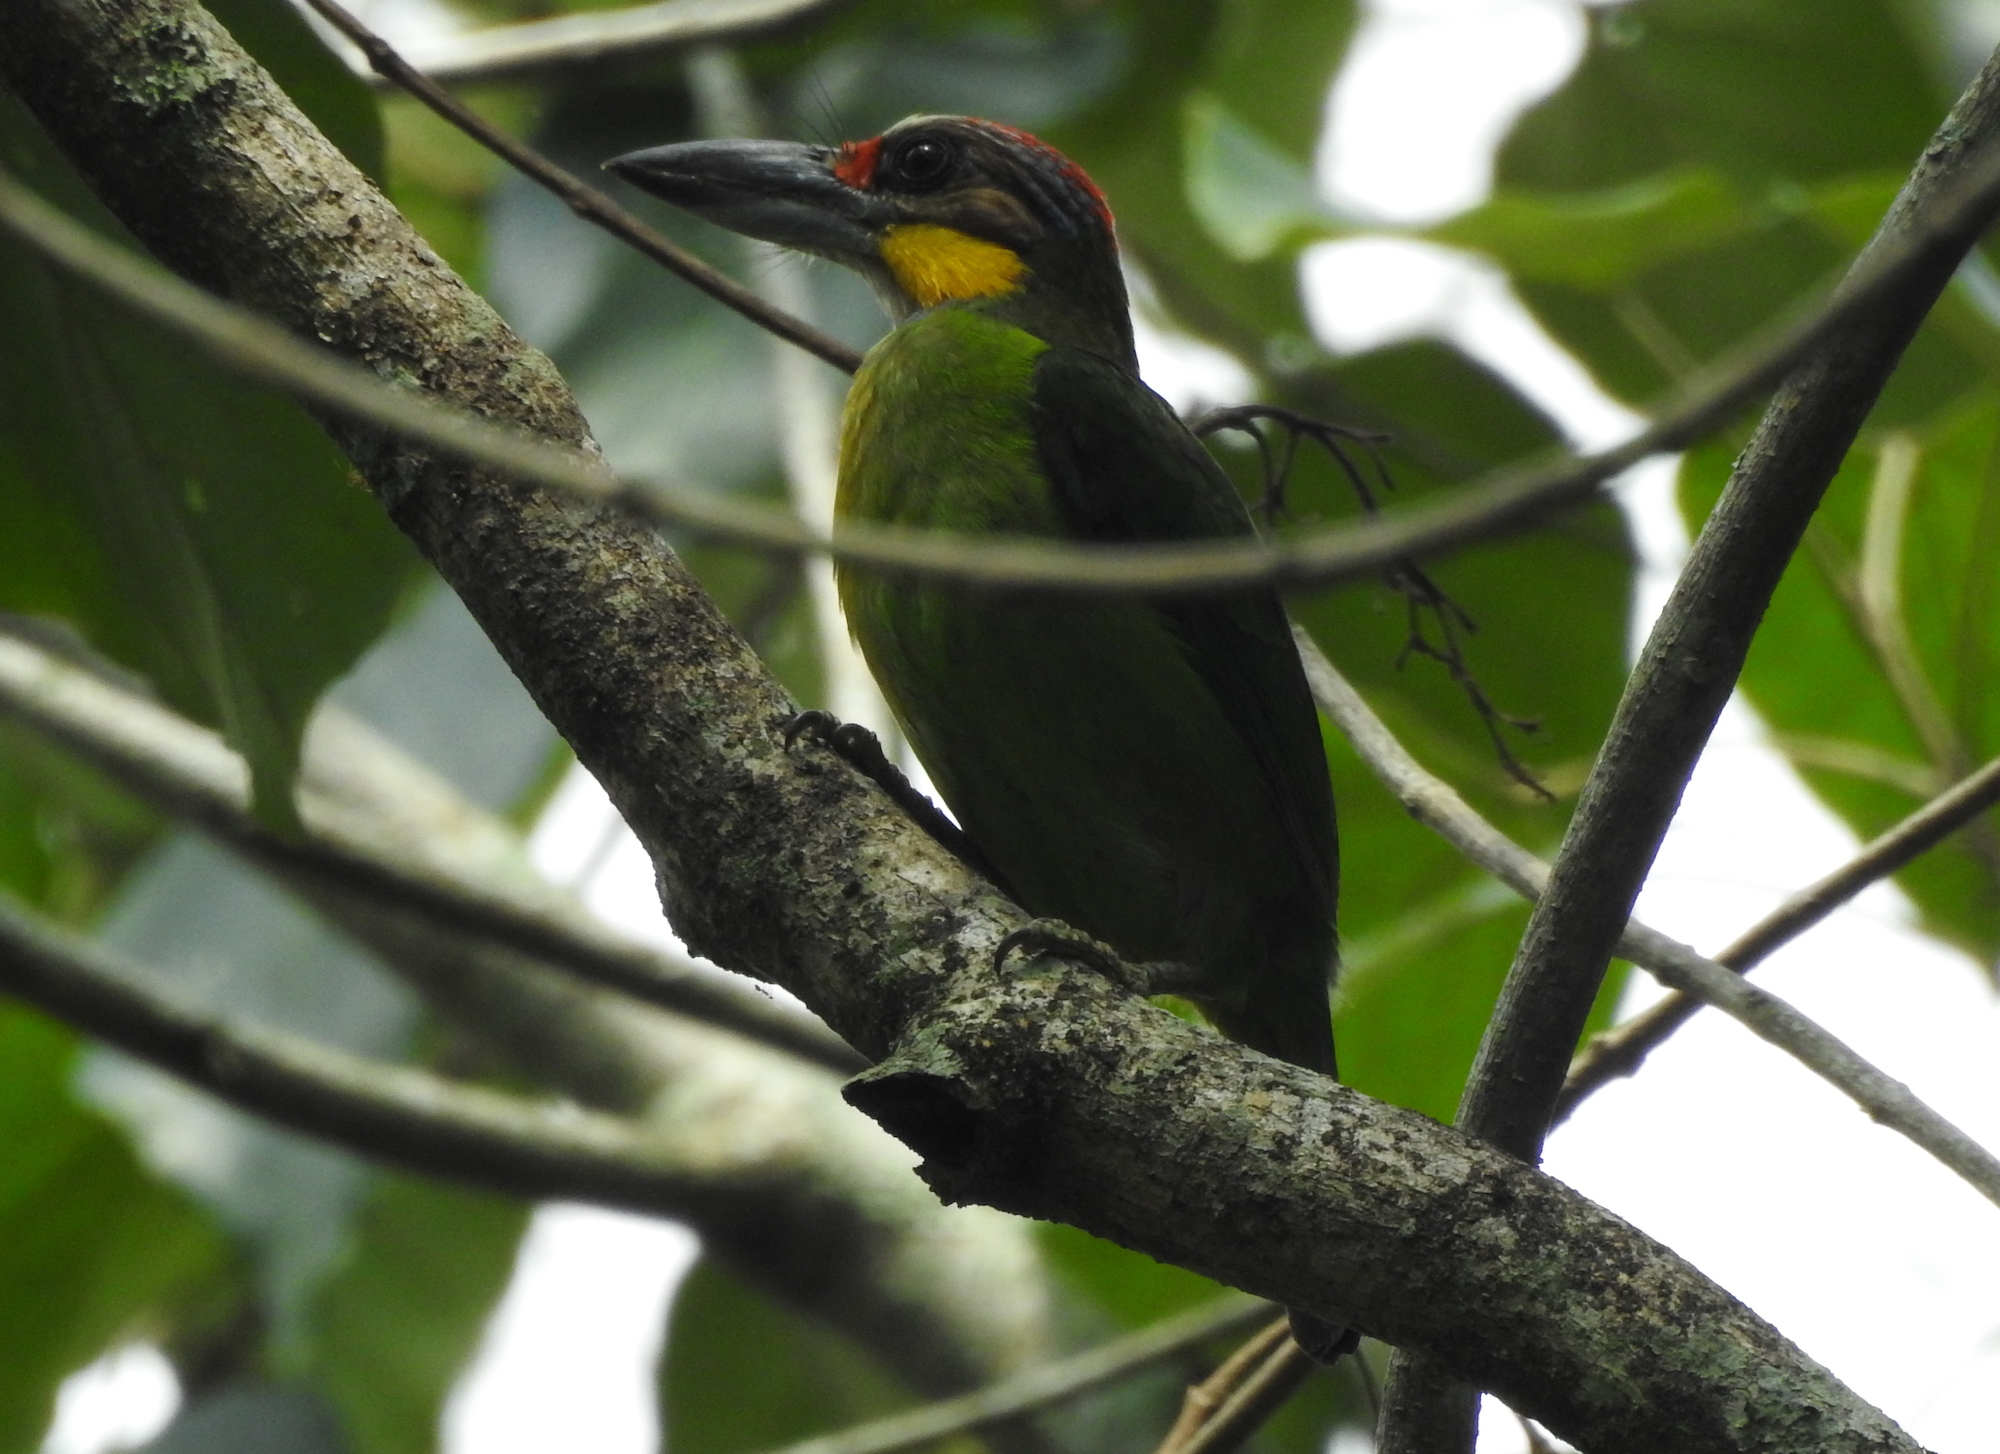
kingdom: Animalia
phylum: Chordata
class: Aves
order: Piciformes
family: Megalaimidae
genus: Psilopogon
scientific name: Psilopogon chrysopogon
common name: Golden-whiskered barbet
